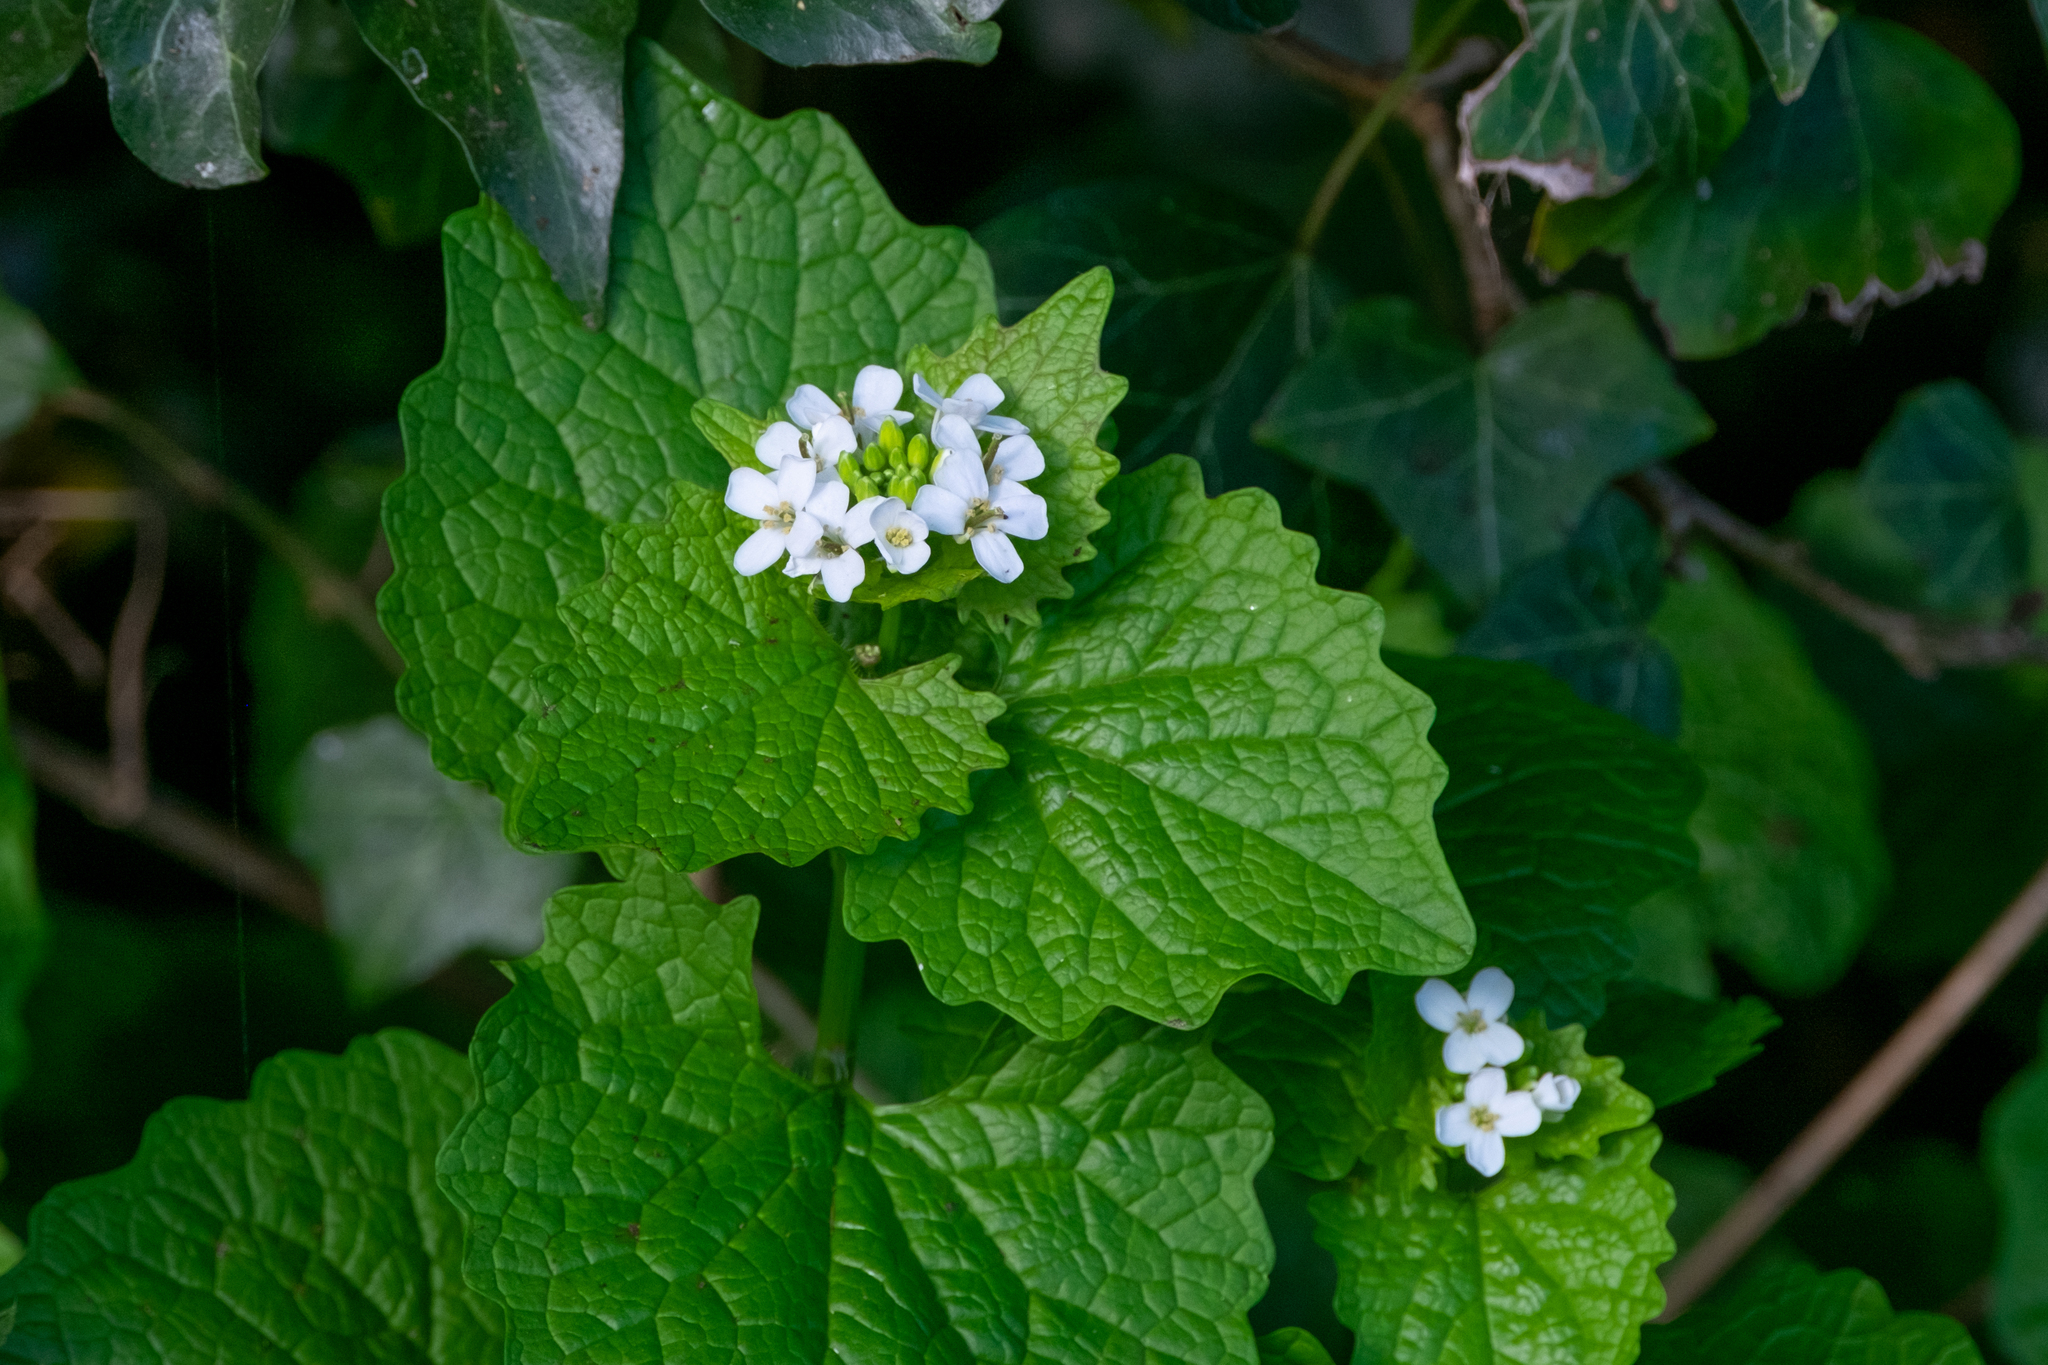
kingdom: Plantae
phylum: Tracheophyta
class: Magnoliopsida
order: Brassicales
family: Brassicaceae
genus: Alliaria
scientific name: Alliaria petiolata
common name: Garlic mustard
